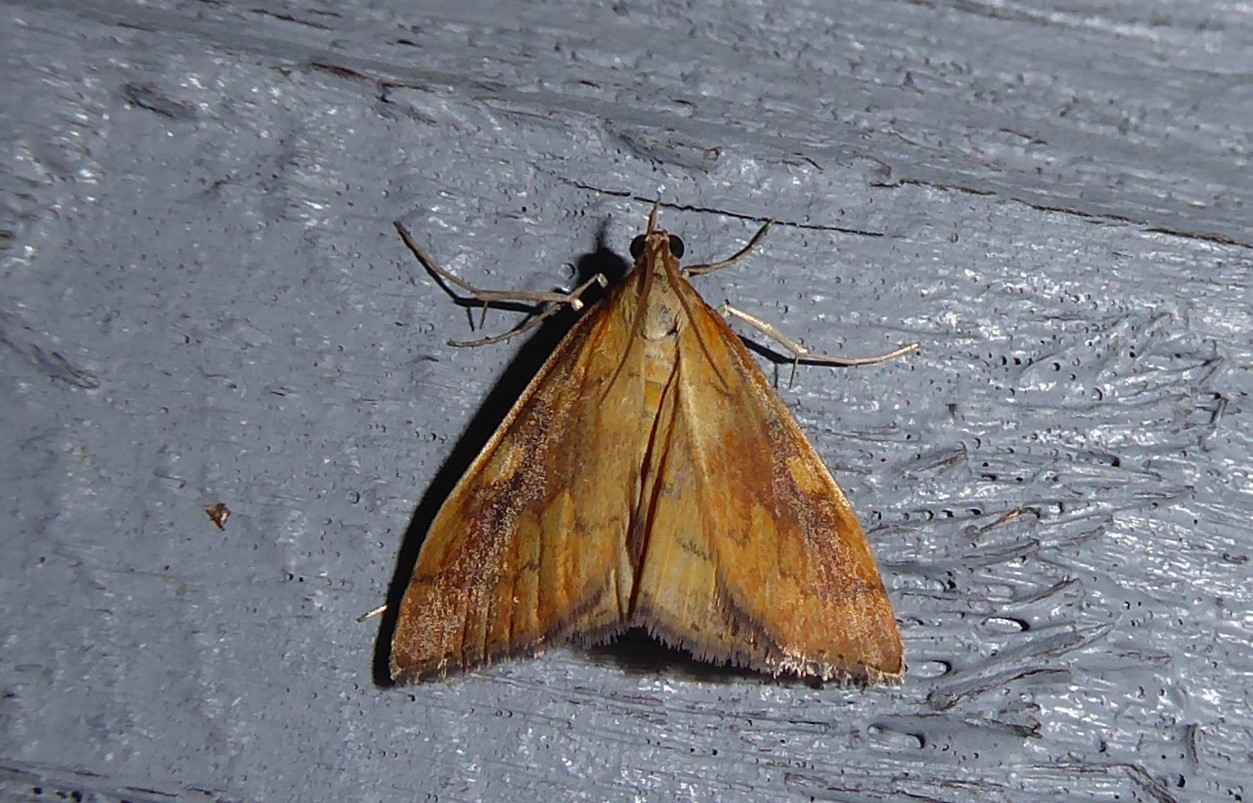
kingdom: Animalia
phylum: Arthropoda
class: Insecta
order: Lepidoptera
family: Crambidae
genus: Udea
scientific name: Udea Mnesictena flavidalis
